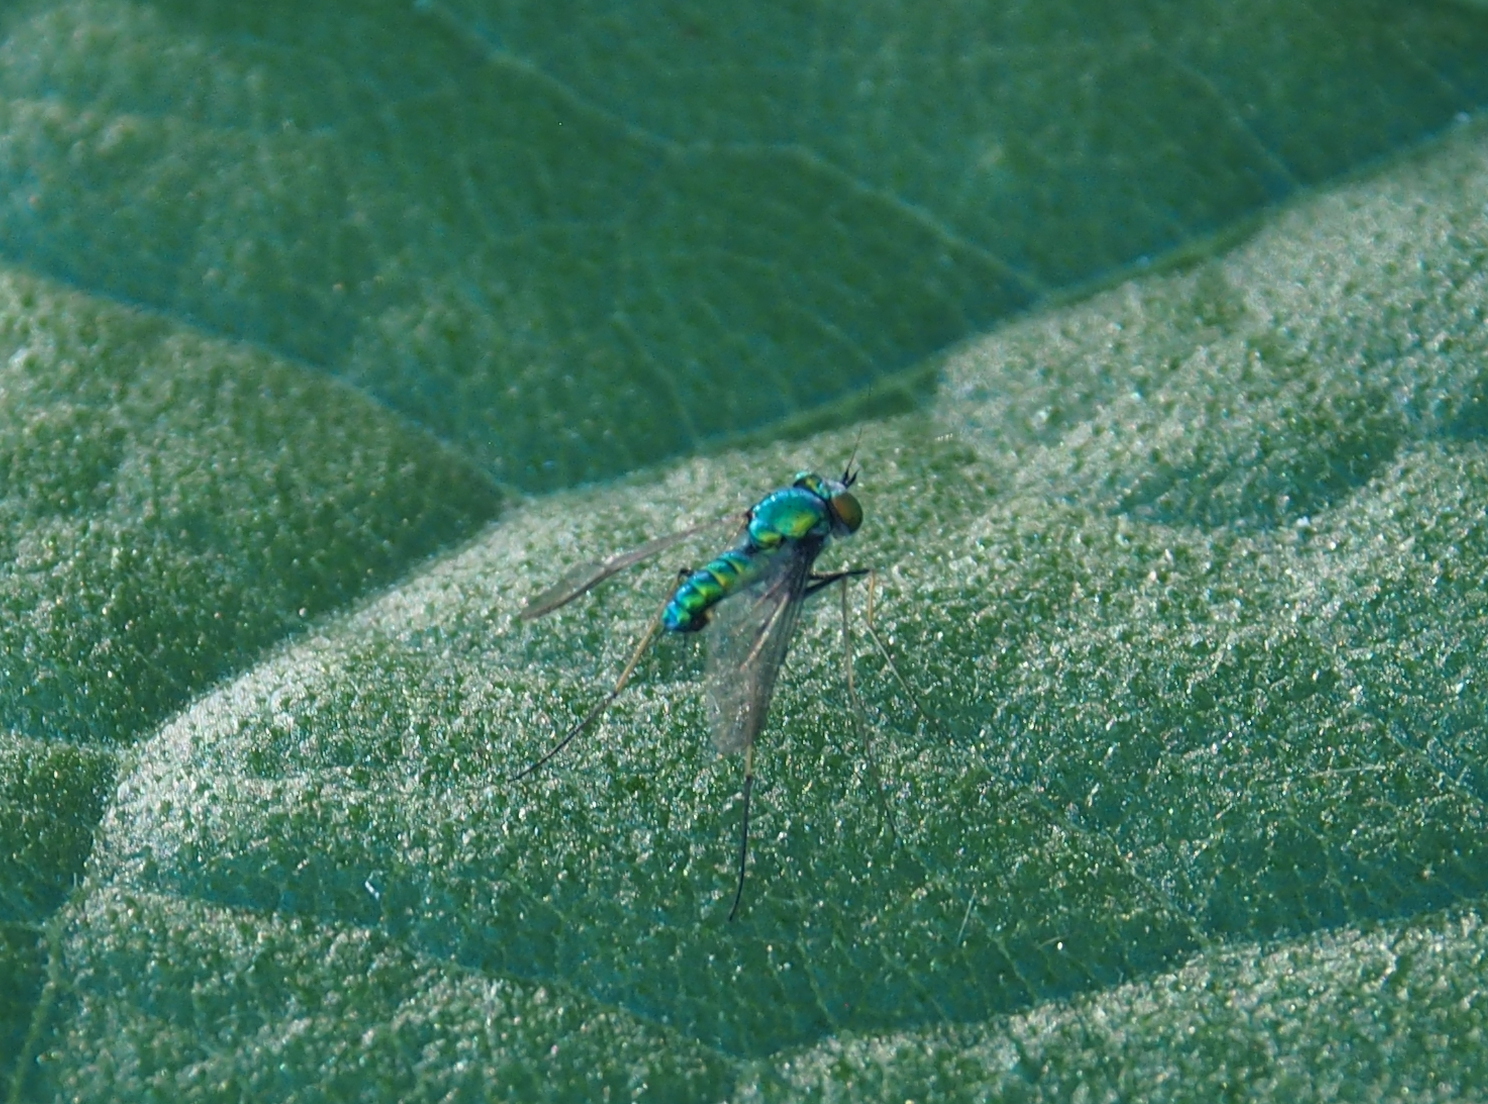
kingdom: Animalia
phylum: Arthropoda
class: Insecta
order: Diptera
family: Dolichopodidae
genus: Condylostylus
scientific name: Condylostylus comatus
